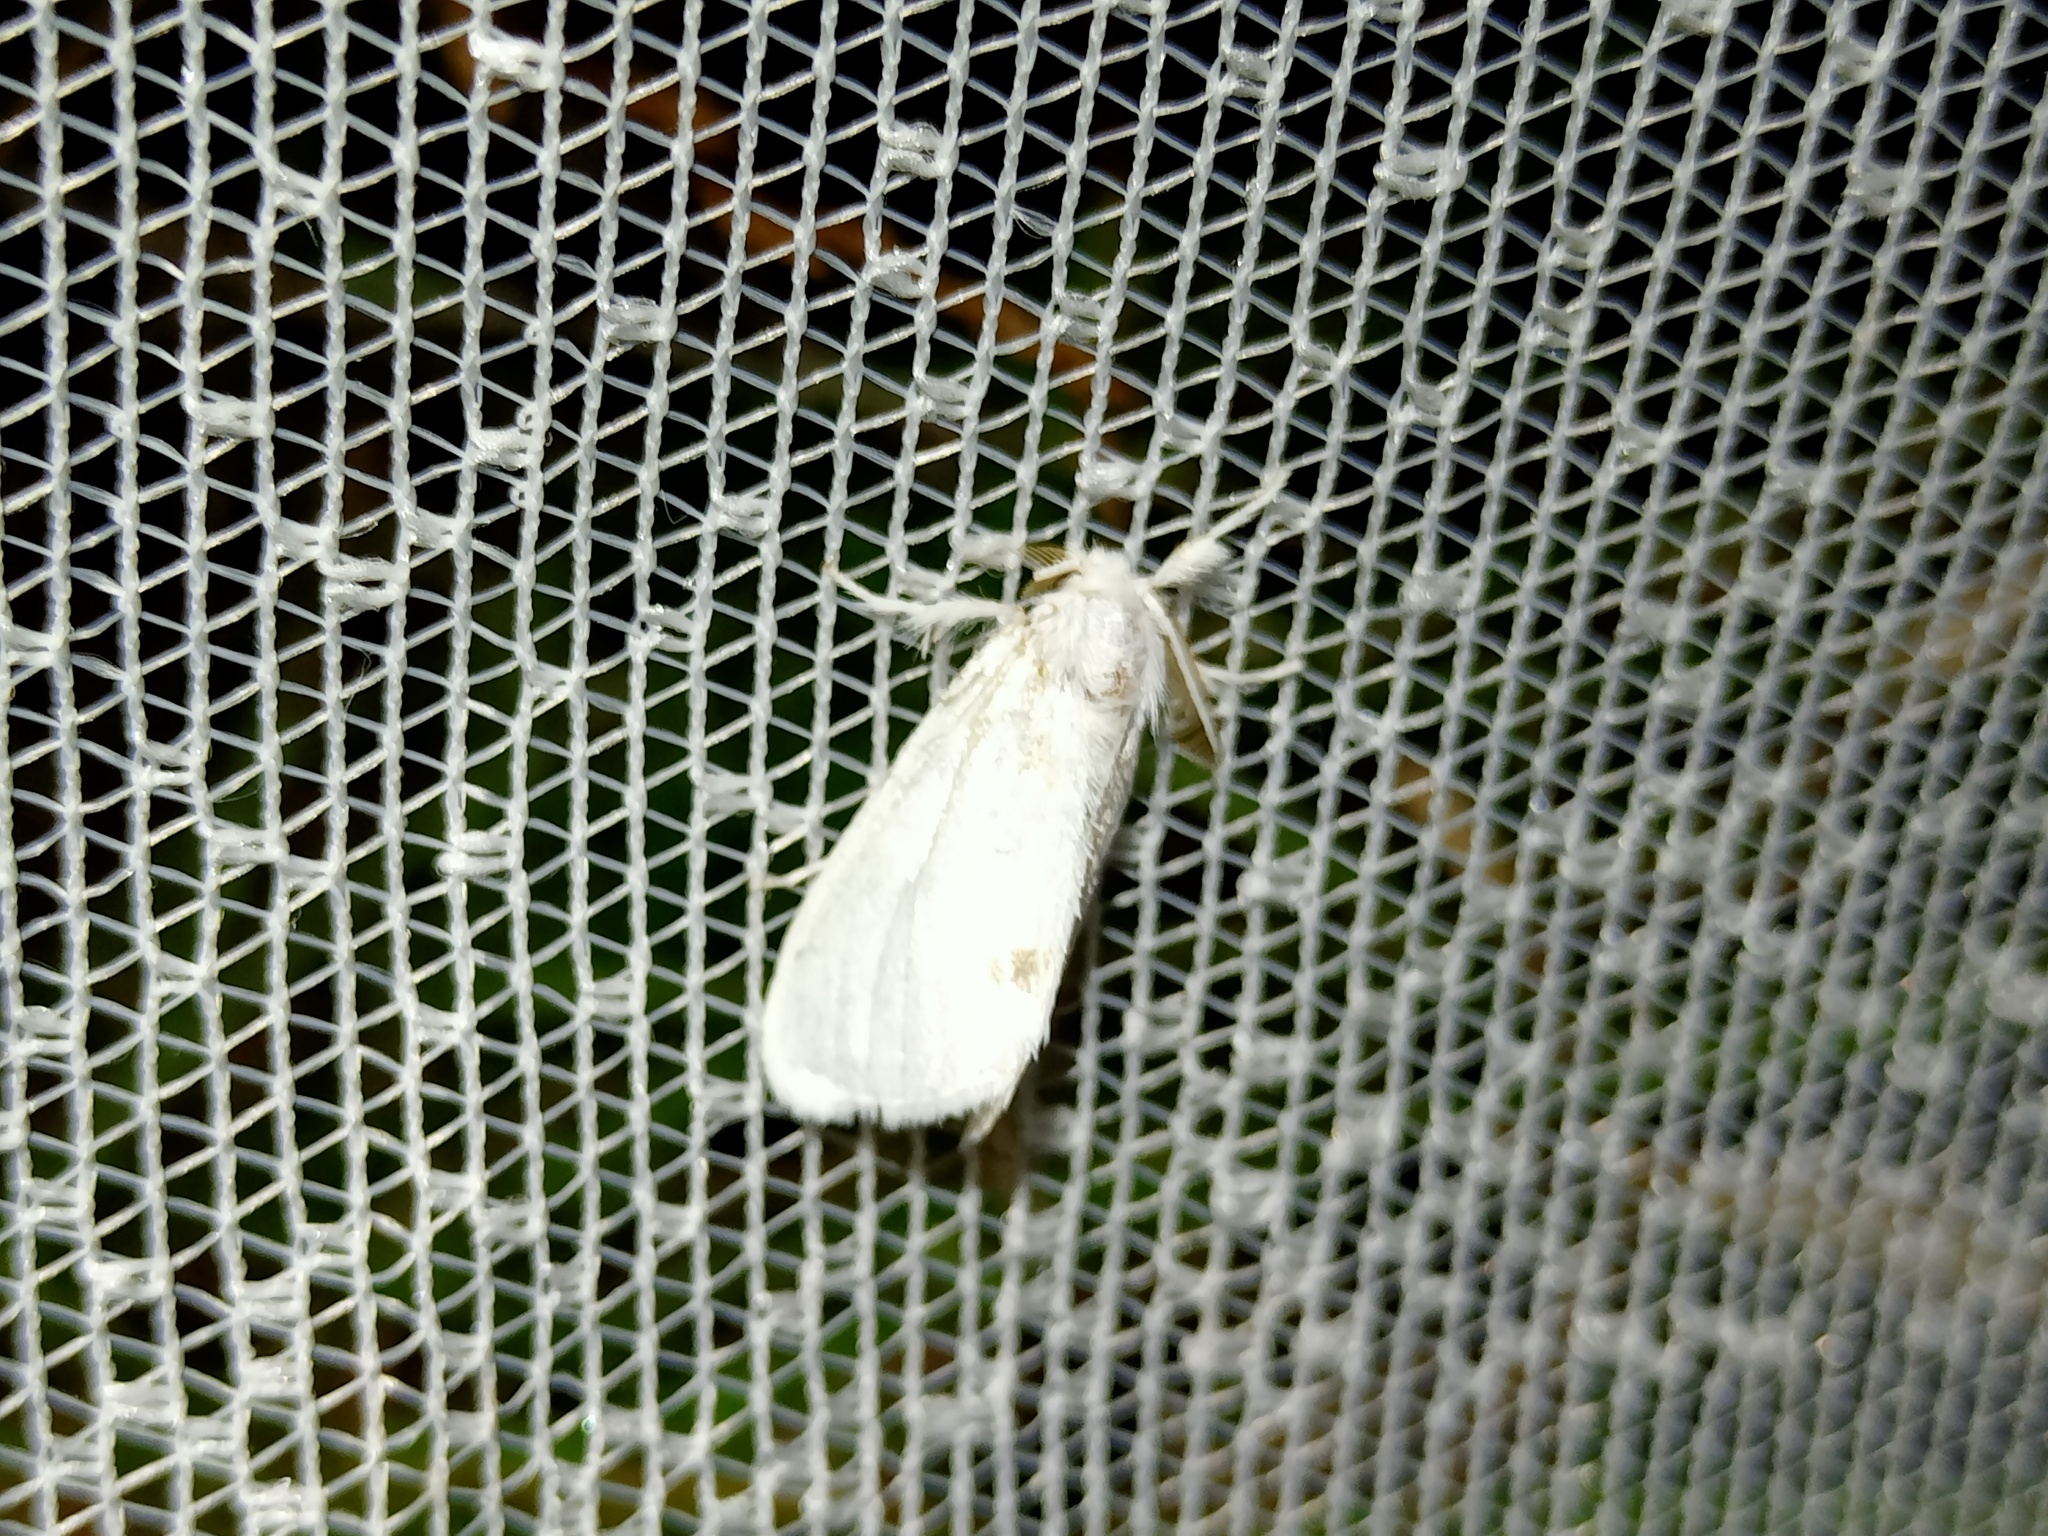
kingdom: Animalia
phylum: Arthropoda
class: Insecta
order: Lepidoptera
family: Erebidae
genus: Sphrageidus
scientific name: Sphrageidus similis
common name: Yellow-tail
